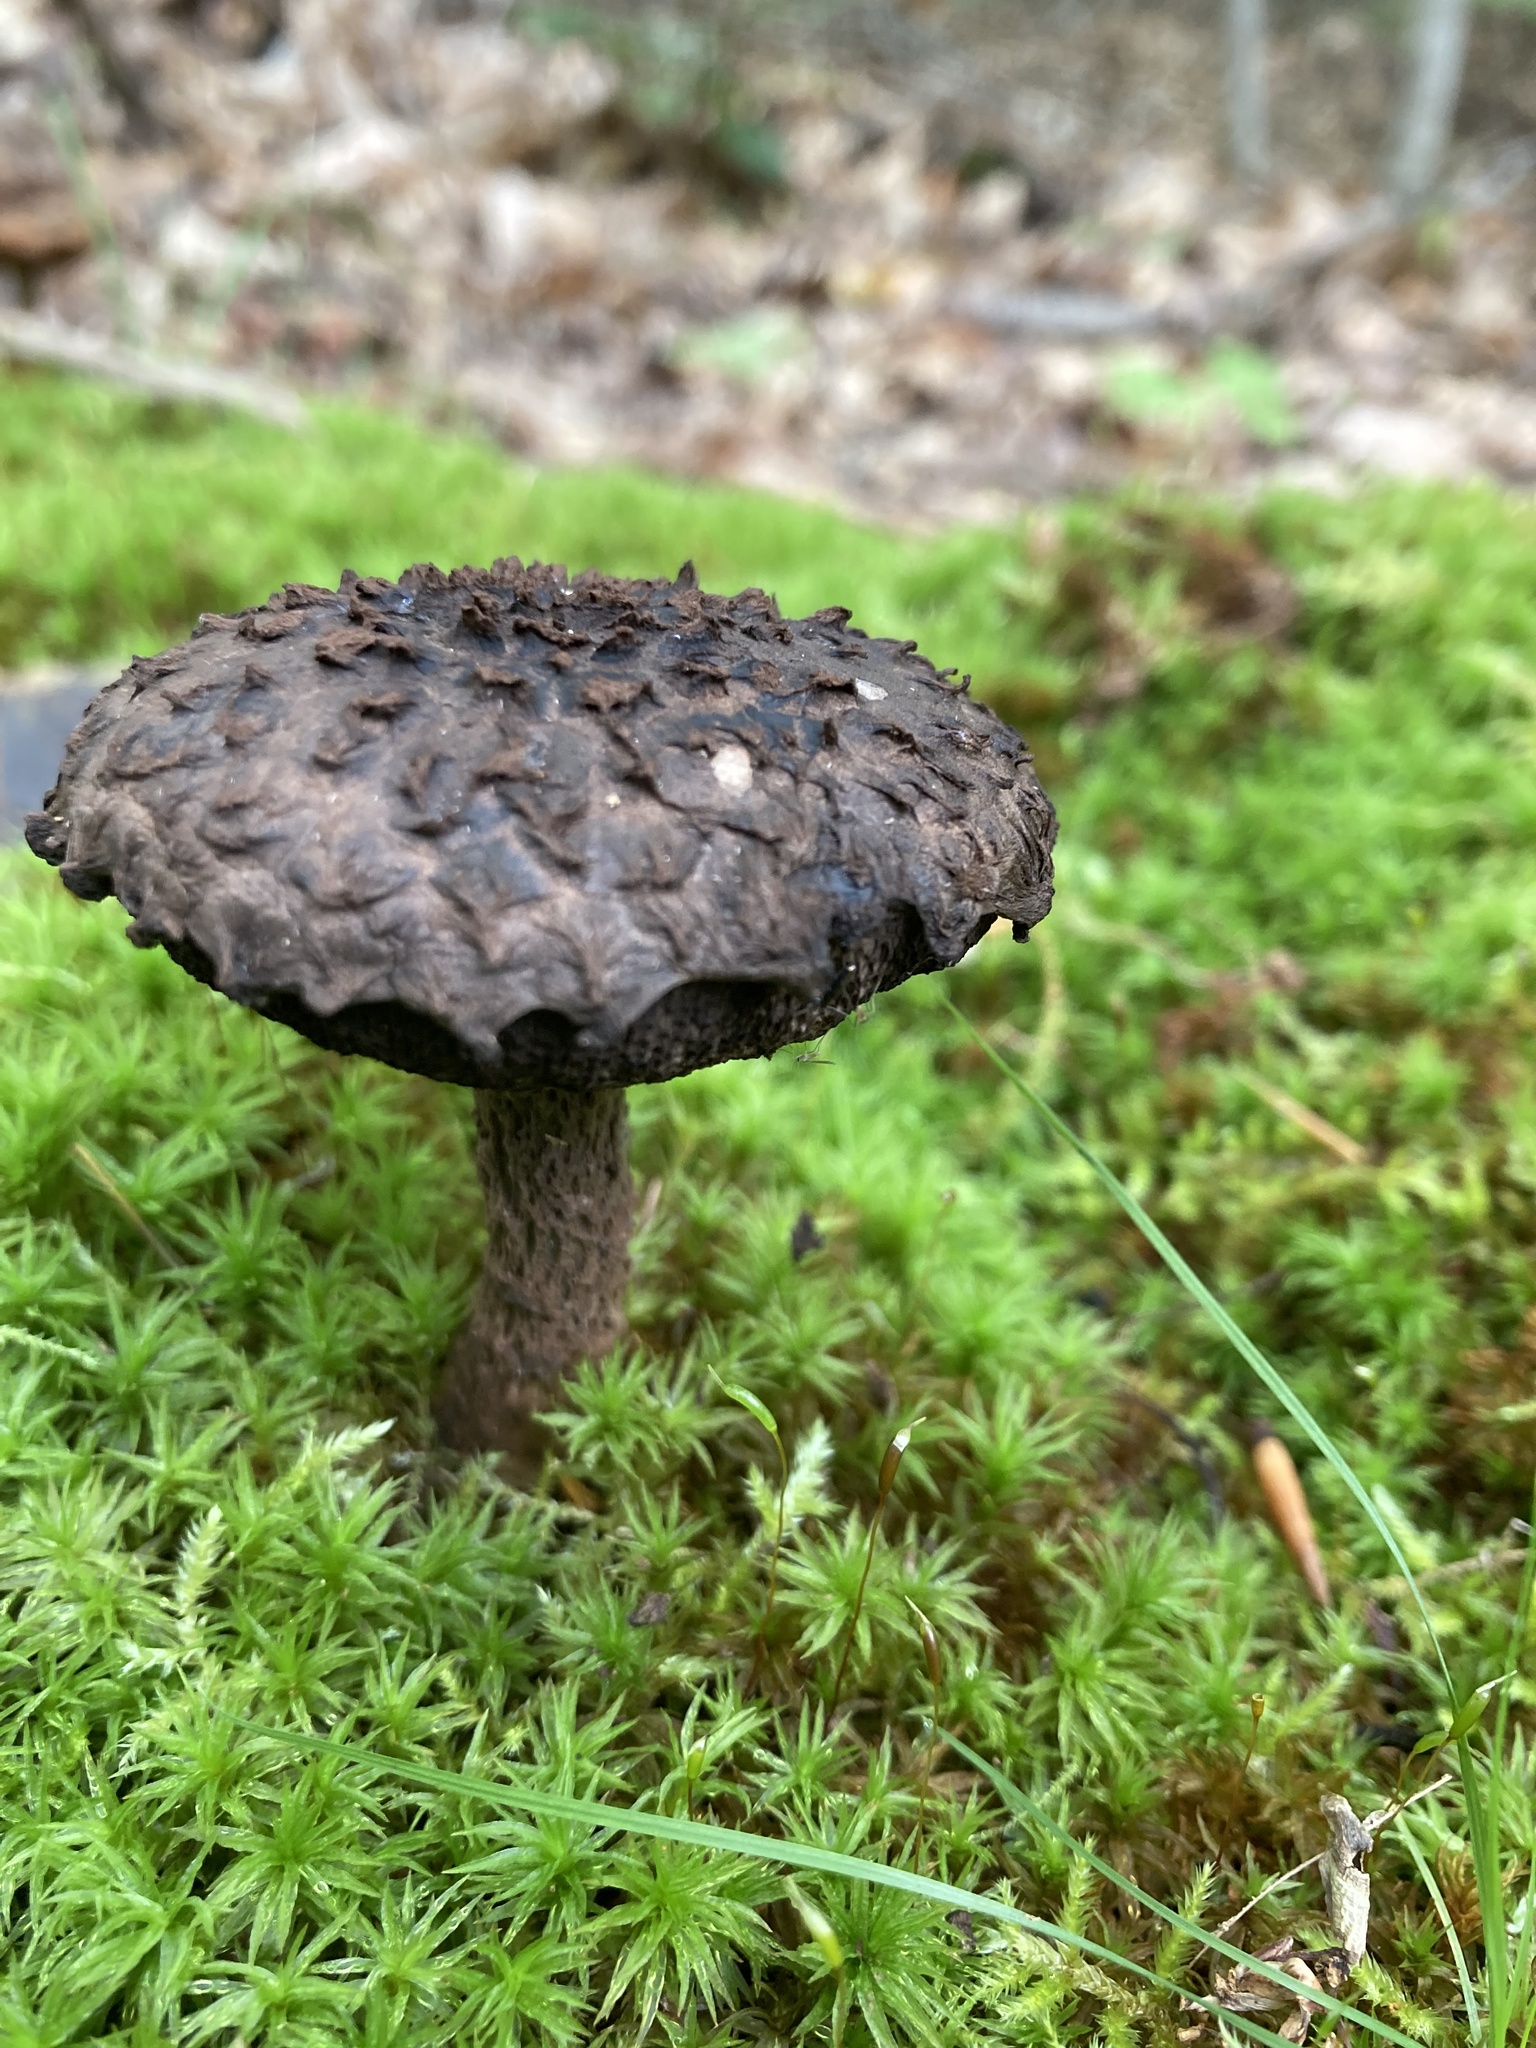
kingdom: Fungi
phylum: Basidiomycota
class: Agaricomycetes
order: Boletales
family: Boletaceae
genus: Strobilomyces
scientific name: Strobilomyces strobilaceus
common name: Old man of the woods
